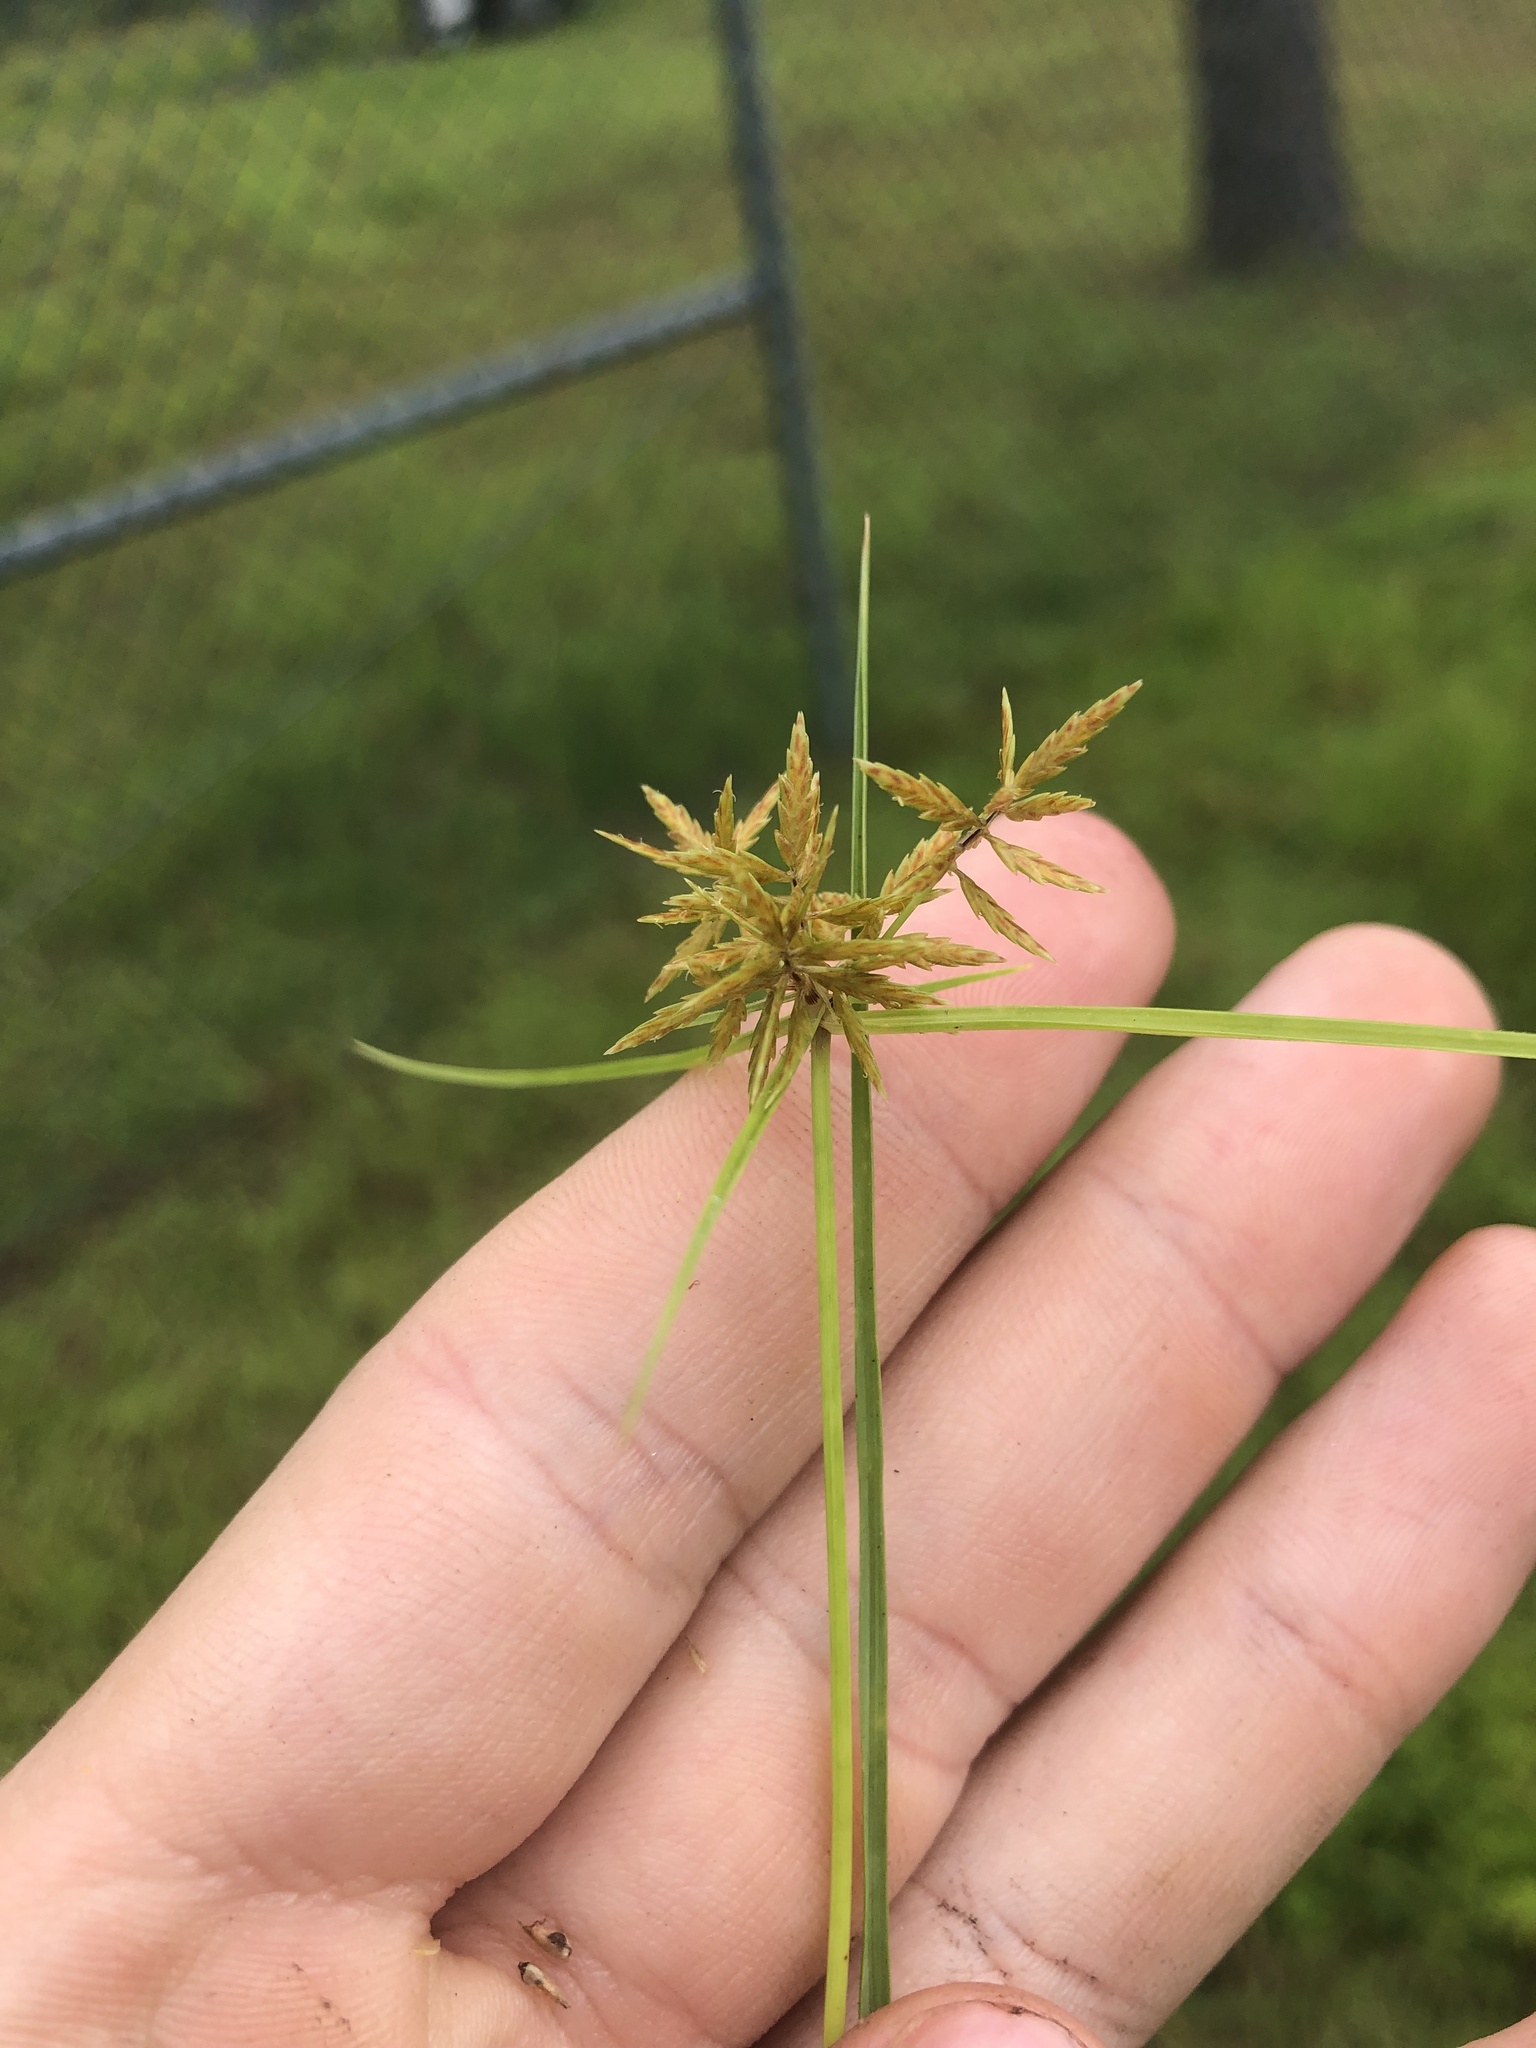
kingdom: Plantae
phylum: Tracheophyta
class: Liliopsida
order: Poales
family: Cyperaceae
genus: Cyperus
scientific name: Cyperus polystachyos
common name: Bunchy flat sedge
